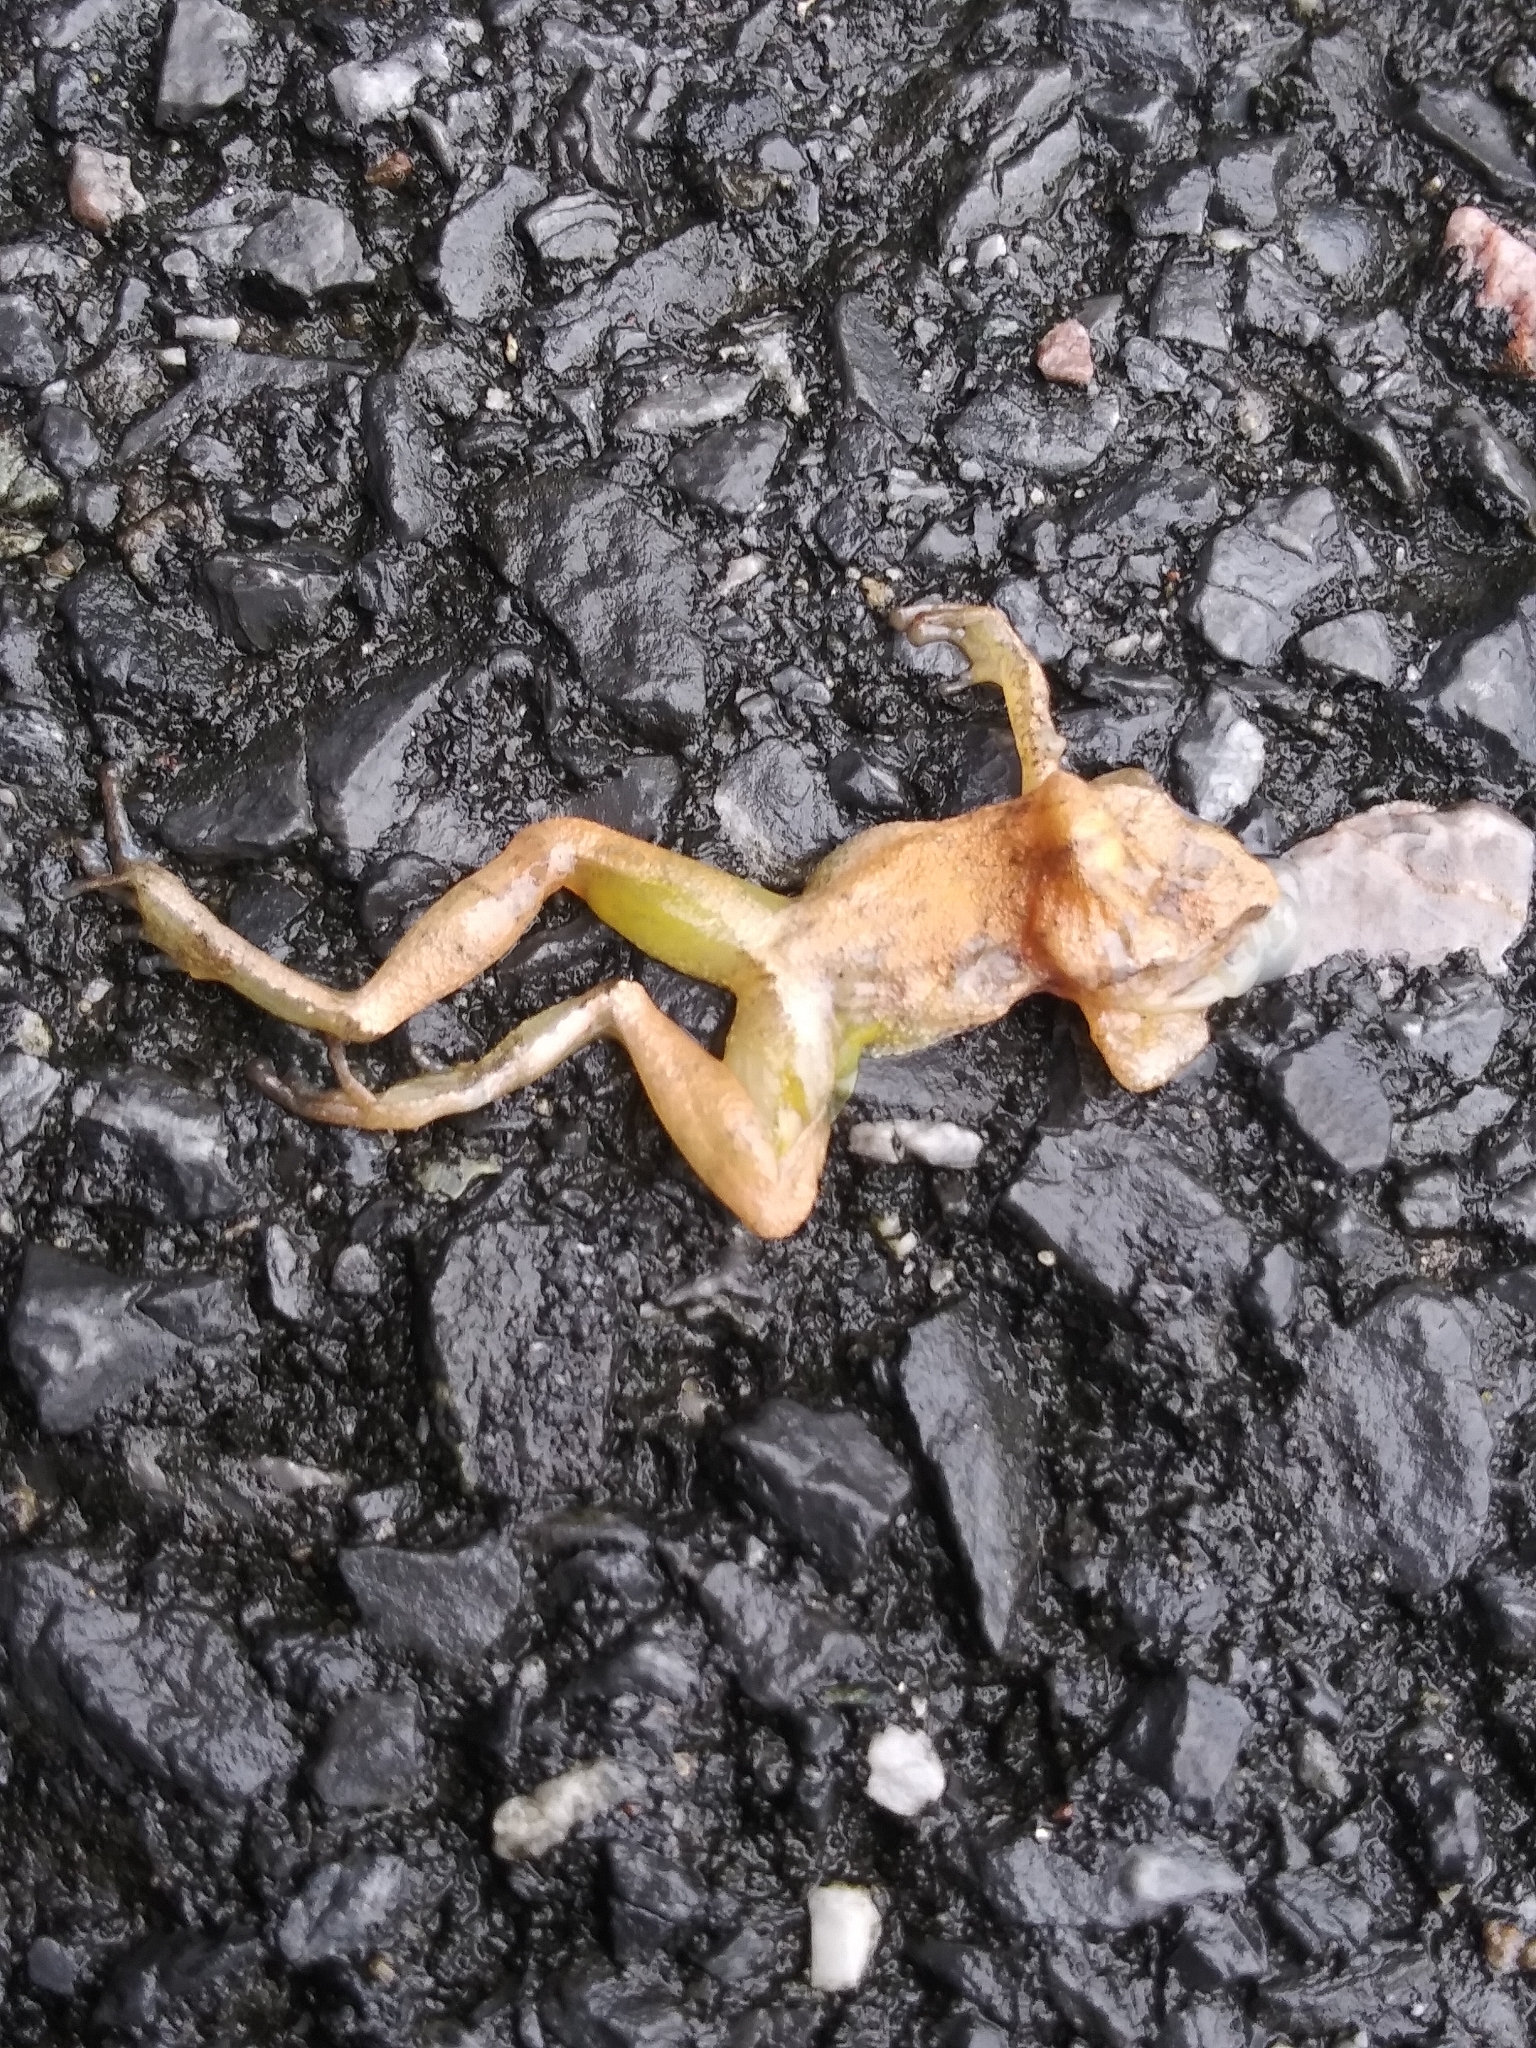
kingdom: Animalia
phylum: Chordata
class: Amphibia
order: Anura
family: Hylidae
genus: Pseudacris
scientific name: Pseudacris crucifer
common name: Spring peeper
